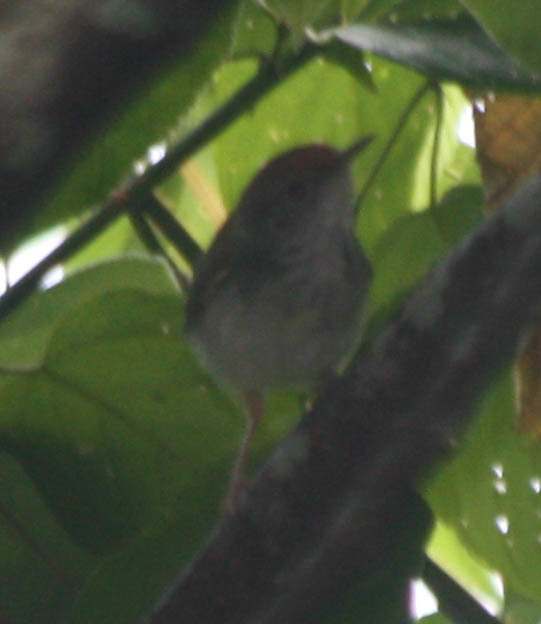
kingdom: Animalia
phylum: Chordata
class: Aves
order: Passeriformes
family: Cisticolidae
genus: Orthotomus
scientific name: Orthotomus sutorius
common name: Common tailorbird
